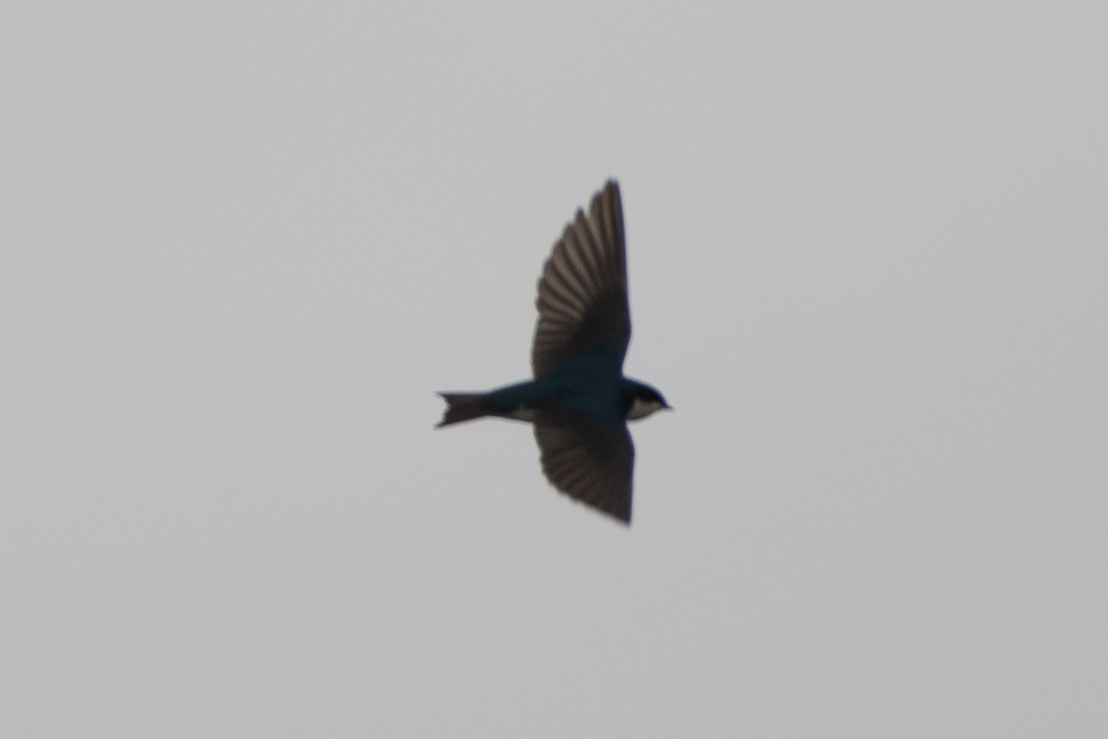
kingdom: Animalia
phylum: Chordata
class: Aves
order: Passeriformes
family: Hirundinidae
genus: Tachycineta
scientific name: Tachycineta bicolor
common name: Tree swallow
